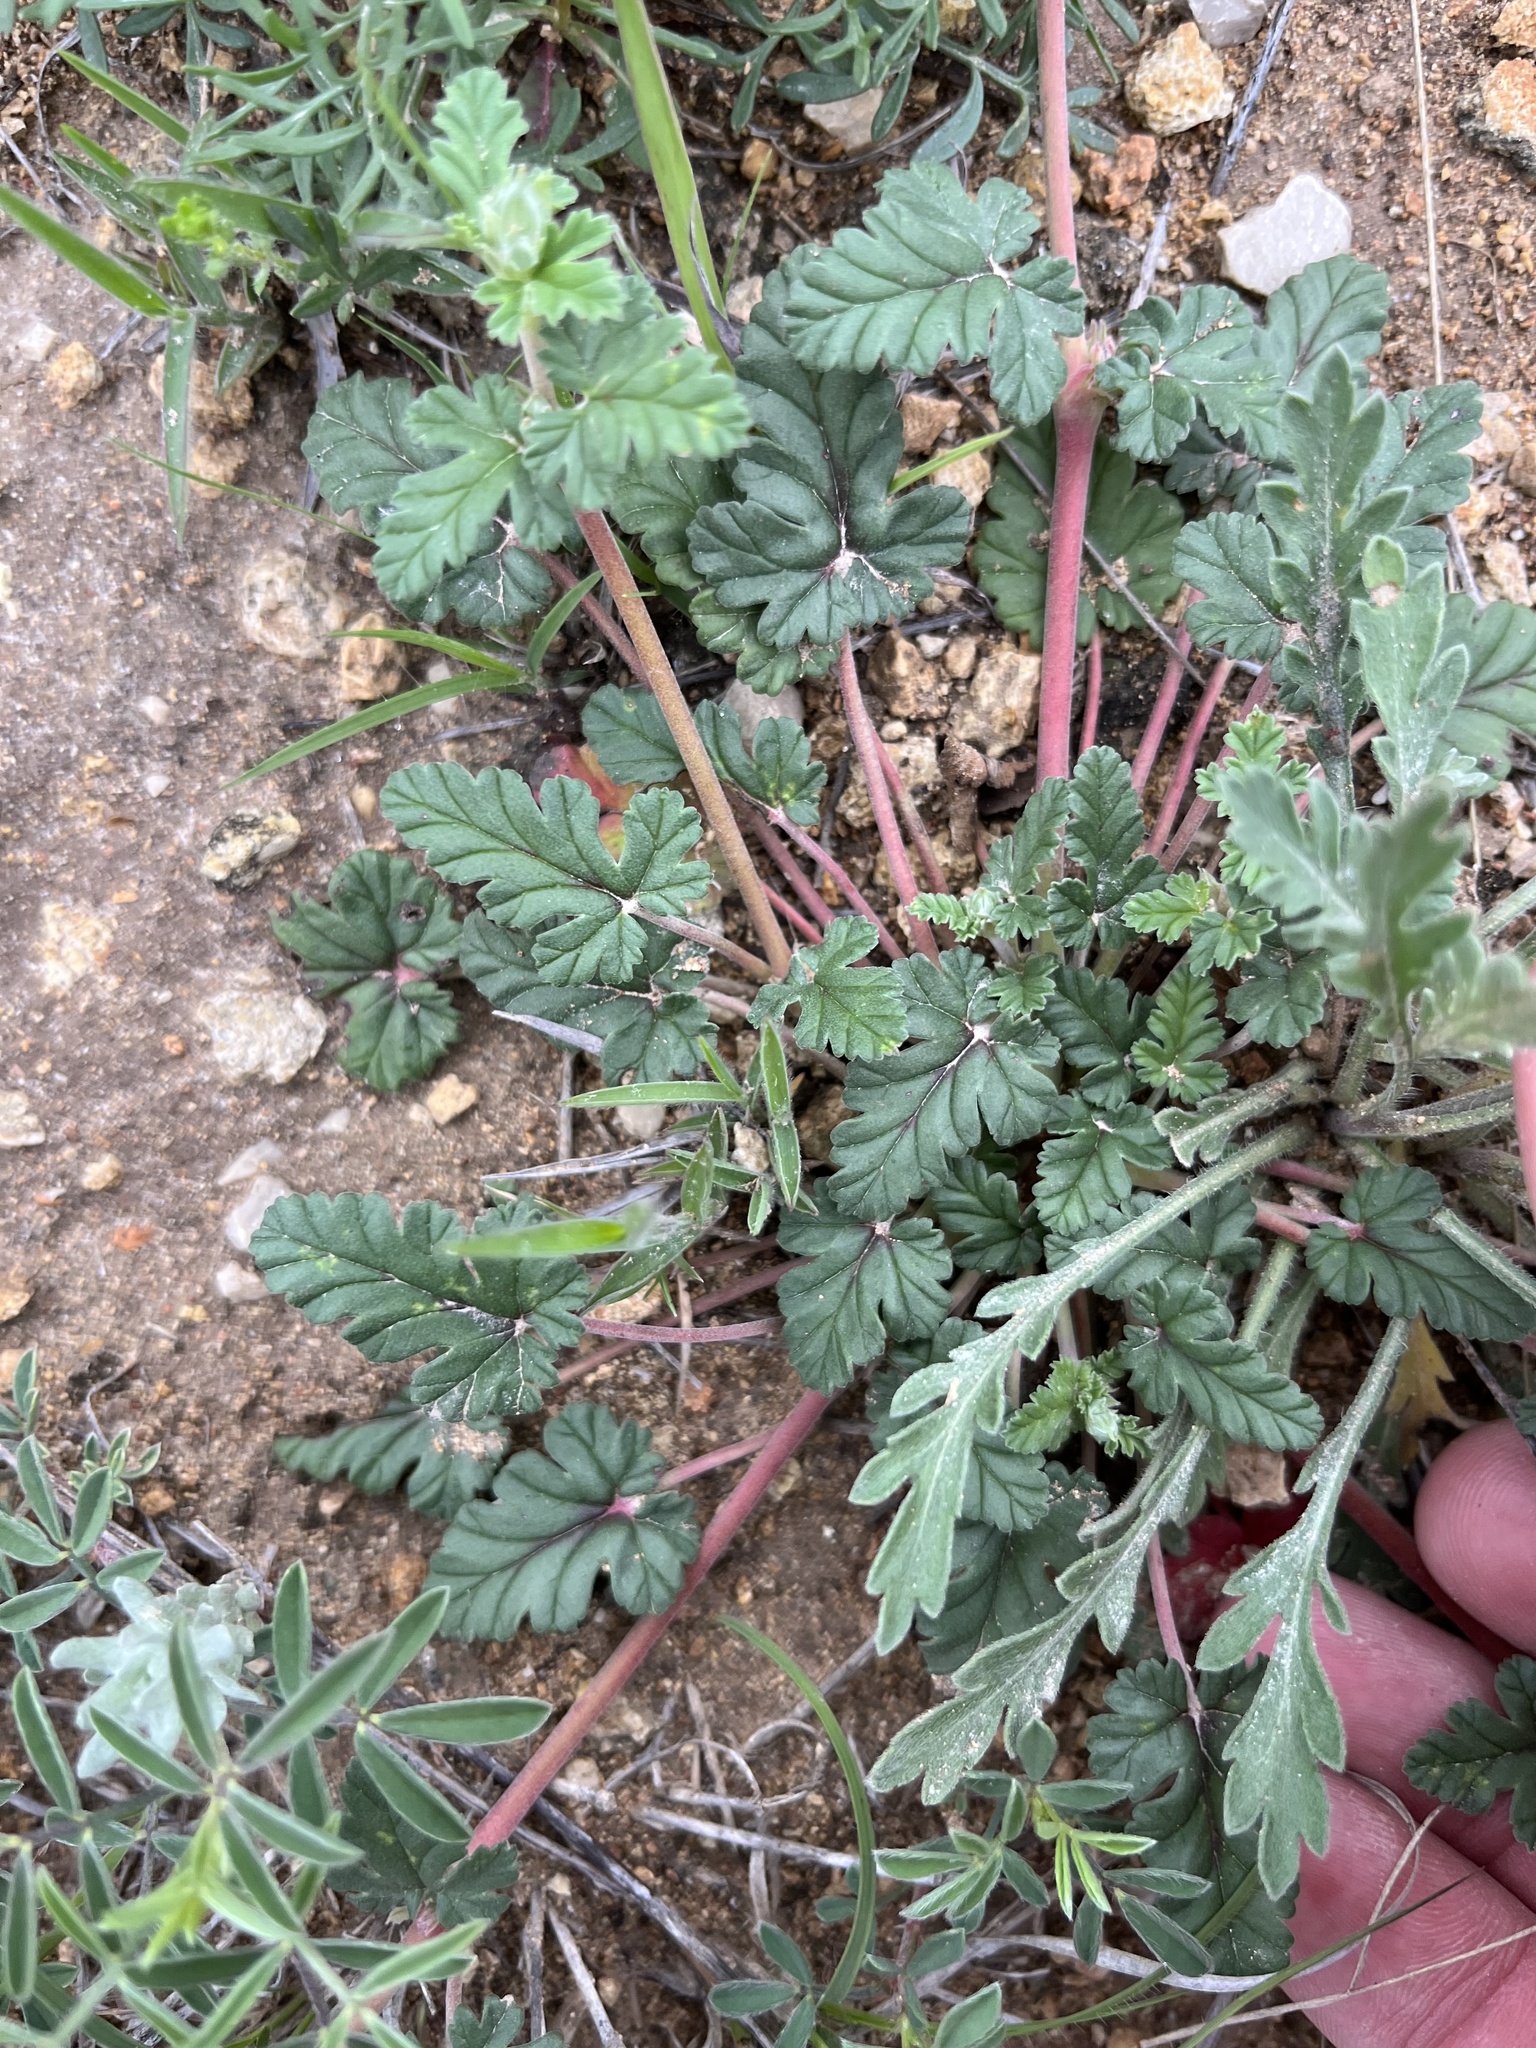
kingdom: Plantae
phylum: Tracheophyta
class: Magnoliopsida
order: Geraniales
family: Geraniaceae
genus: Erodium
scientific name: Erodium texanum
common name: Texas stork's-bill
